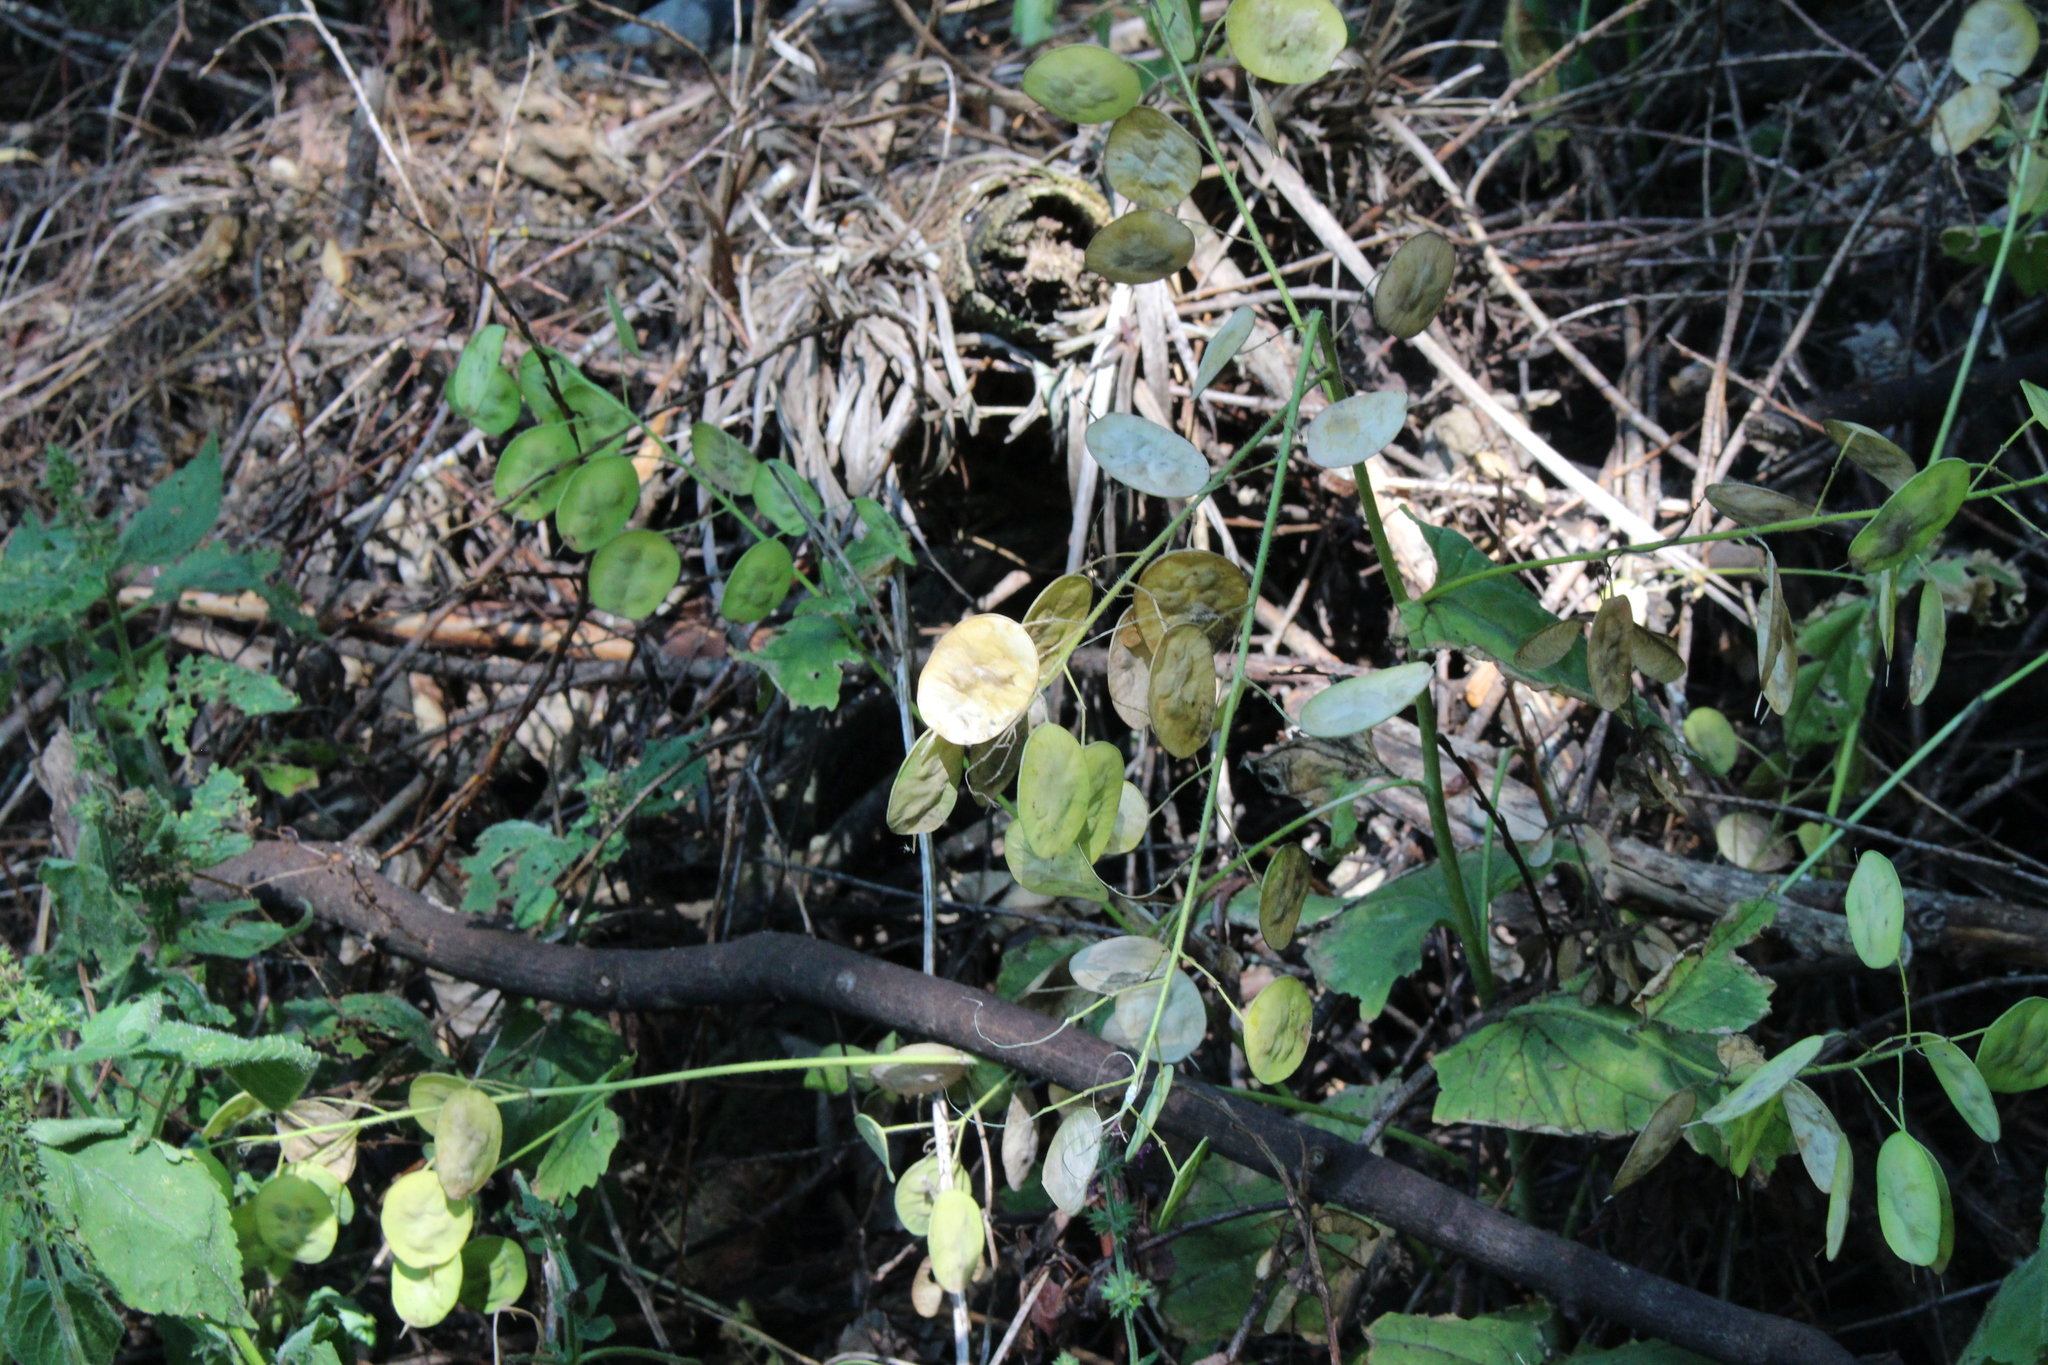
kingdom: Plantae
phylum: Tracheophyta
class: Magnoliopsida
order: Brassicales
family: Brassicaceae
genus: Lunaria
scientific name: Lunaria annua
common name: Honesty
